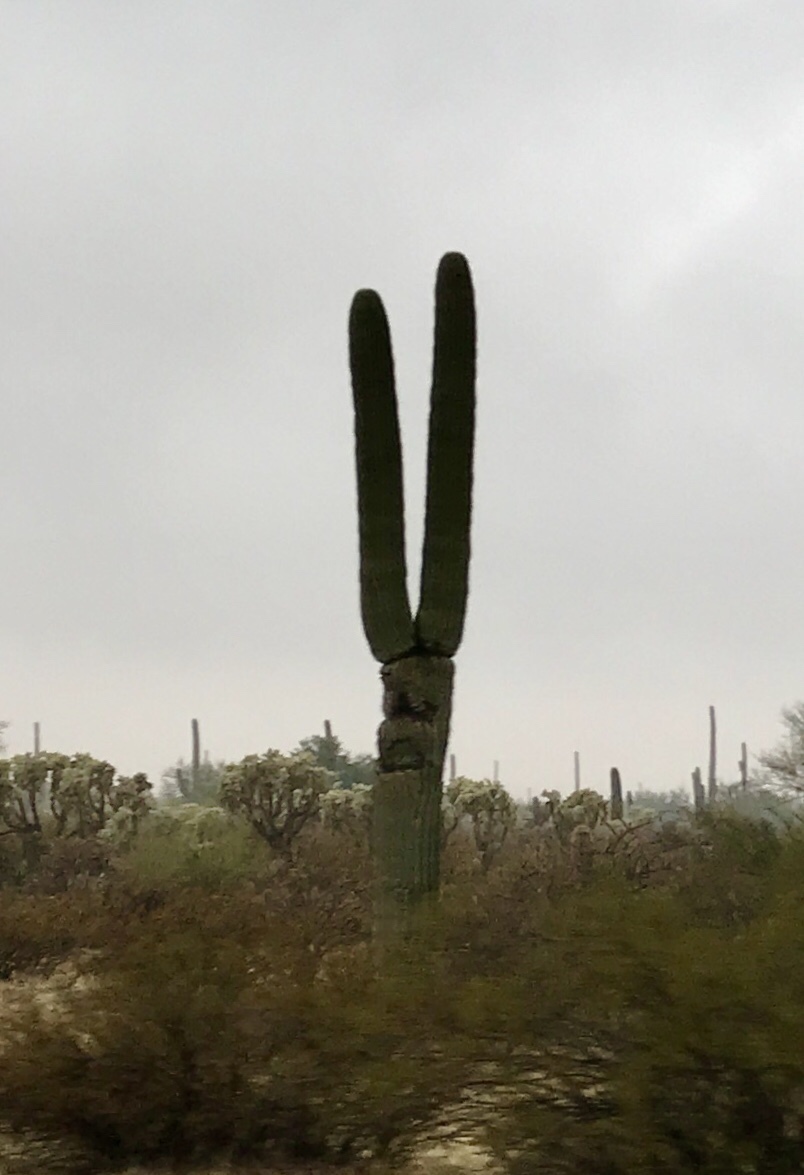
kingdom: Plantae
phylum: Tracheophyta
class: Magnoliopsida
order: Caryophyllales
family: Cactaceae
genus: Carnegiea
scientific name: Carnegiea gigantea
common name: Saguaro
